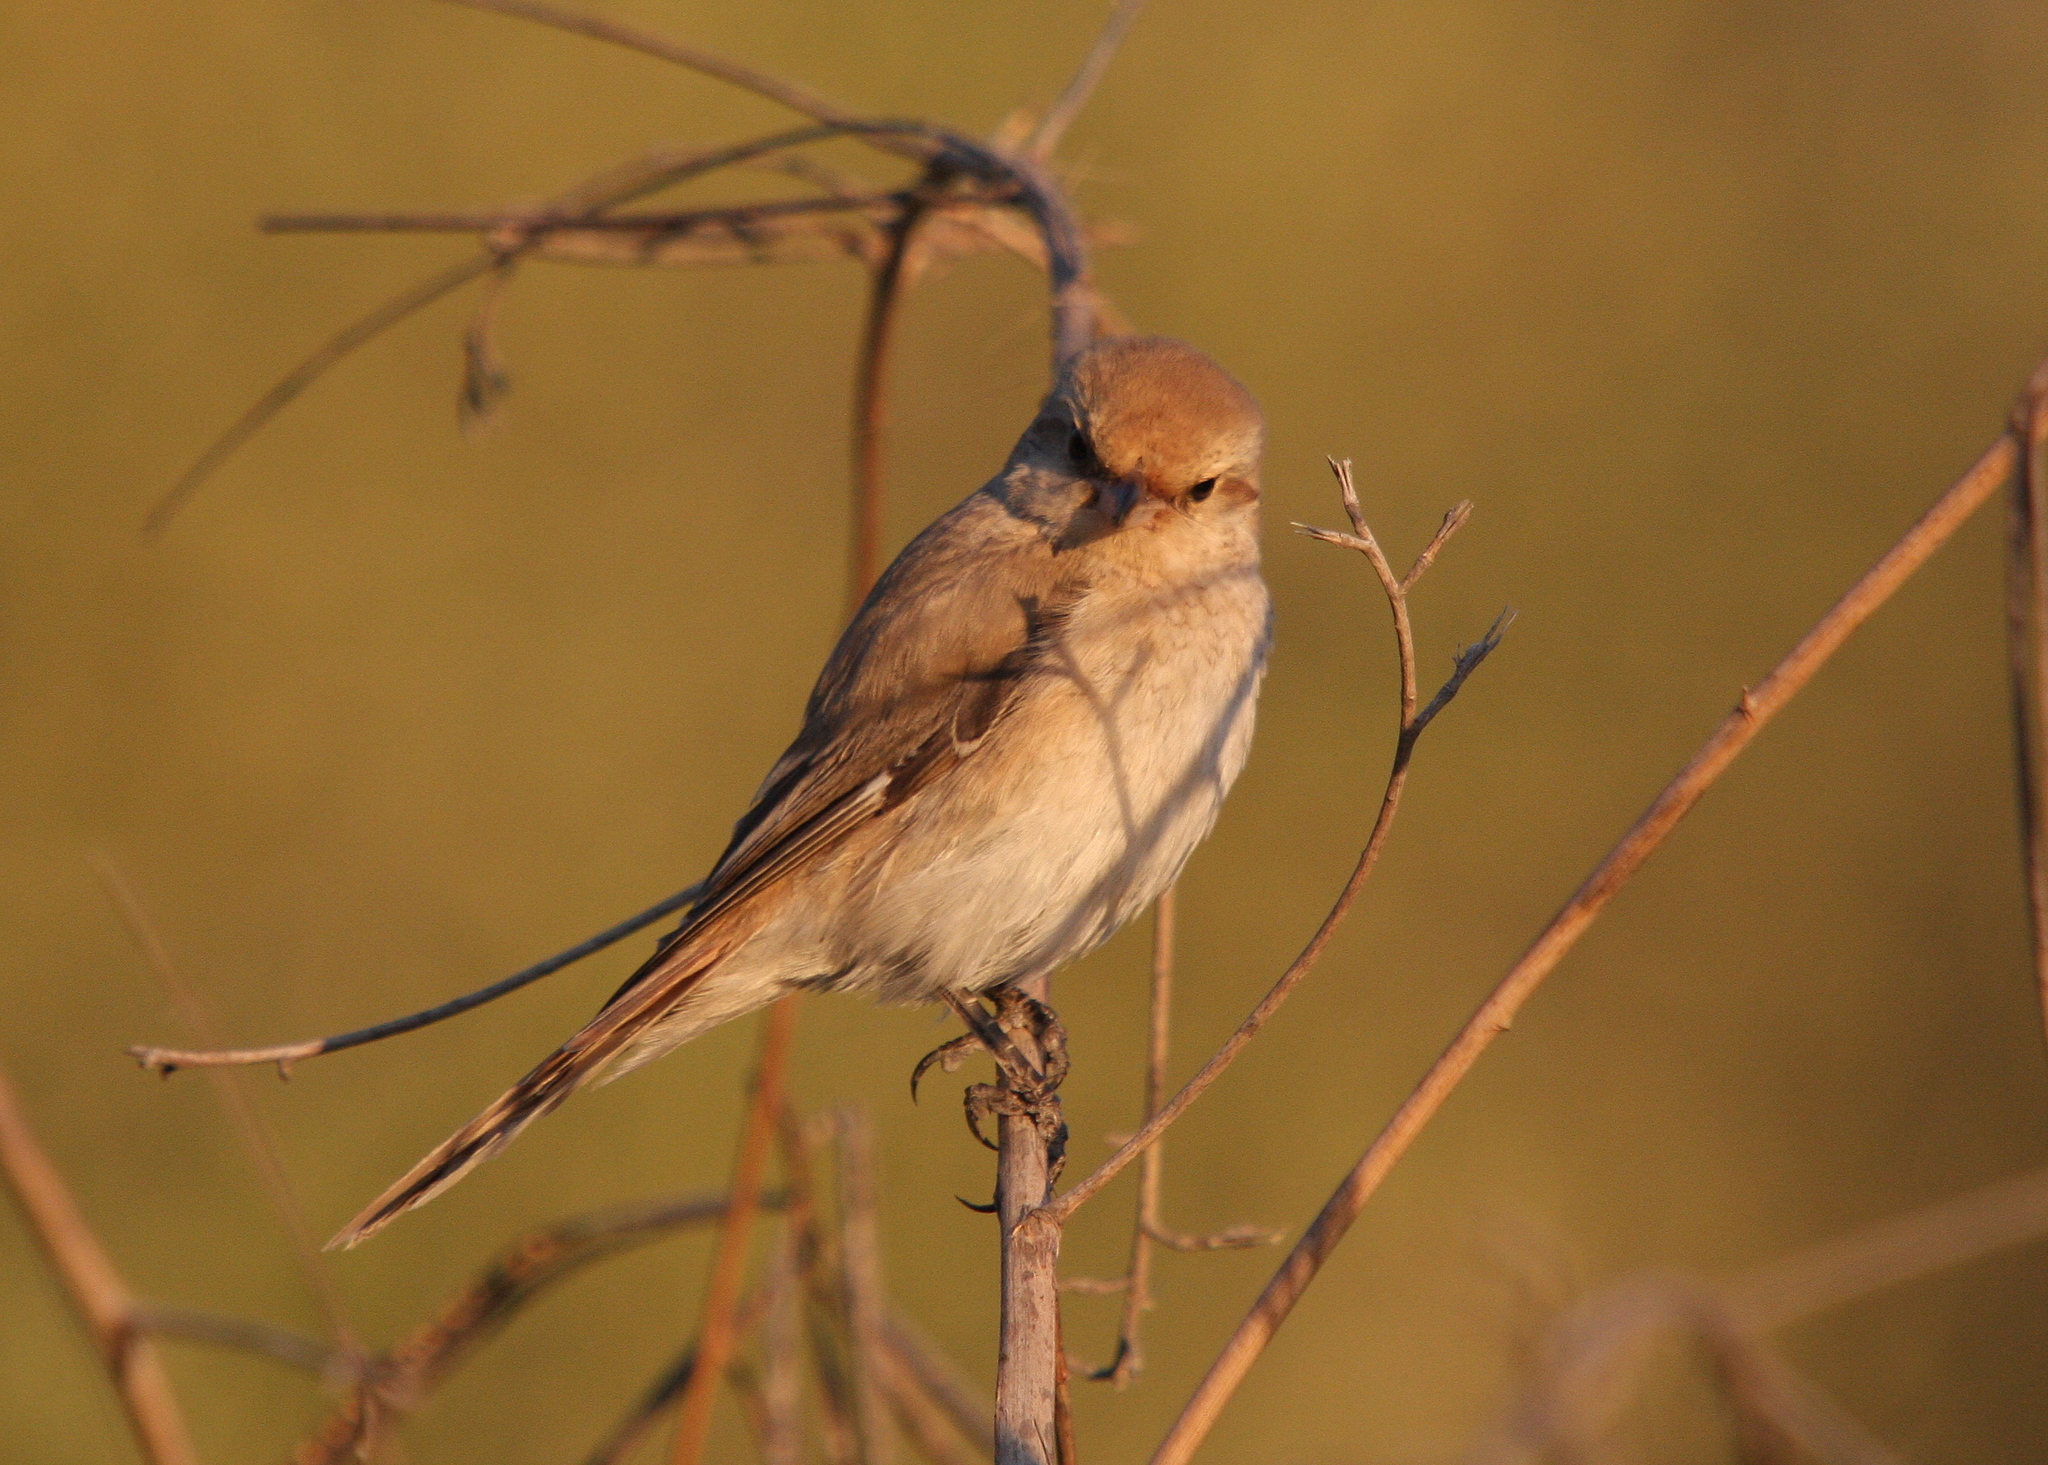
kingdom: Animalia
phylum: Chordata
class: Aves
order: Passeriformes
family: Laniidae
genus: Lanius
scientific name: Lanius isabellinus
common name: Isabelline shrike
